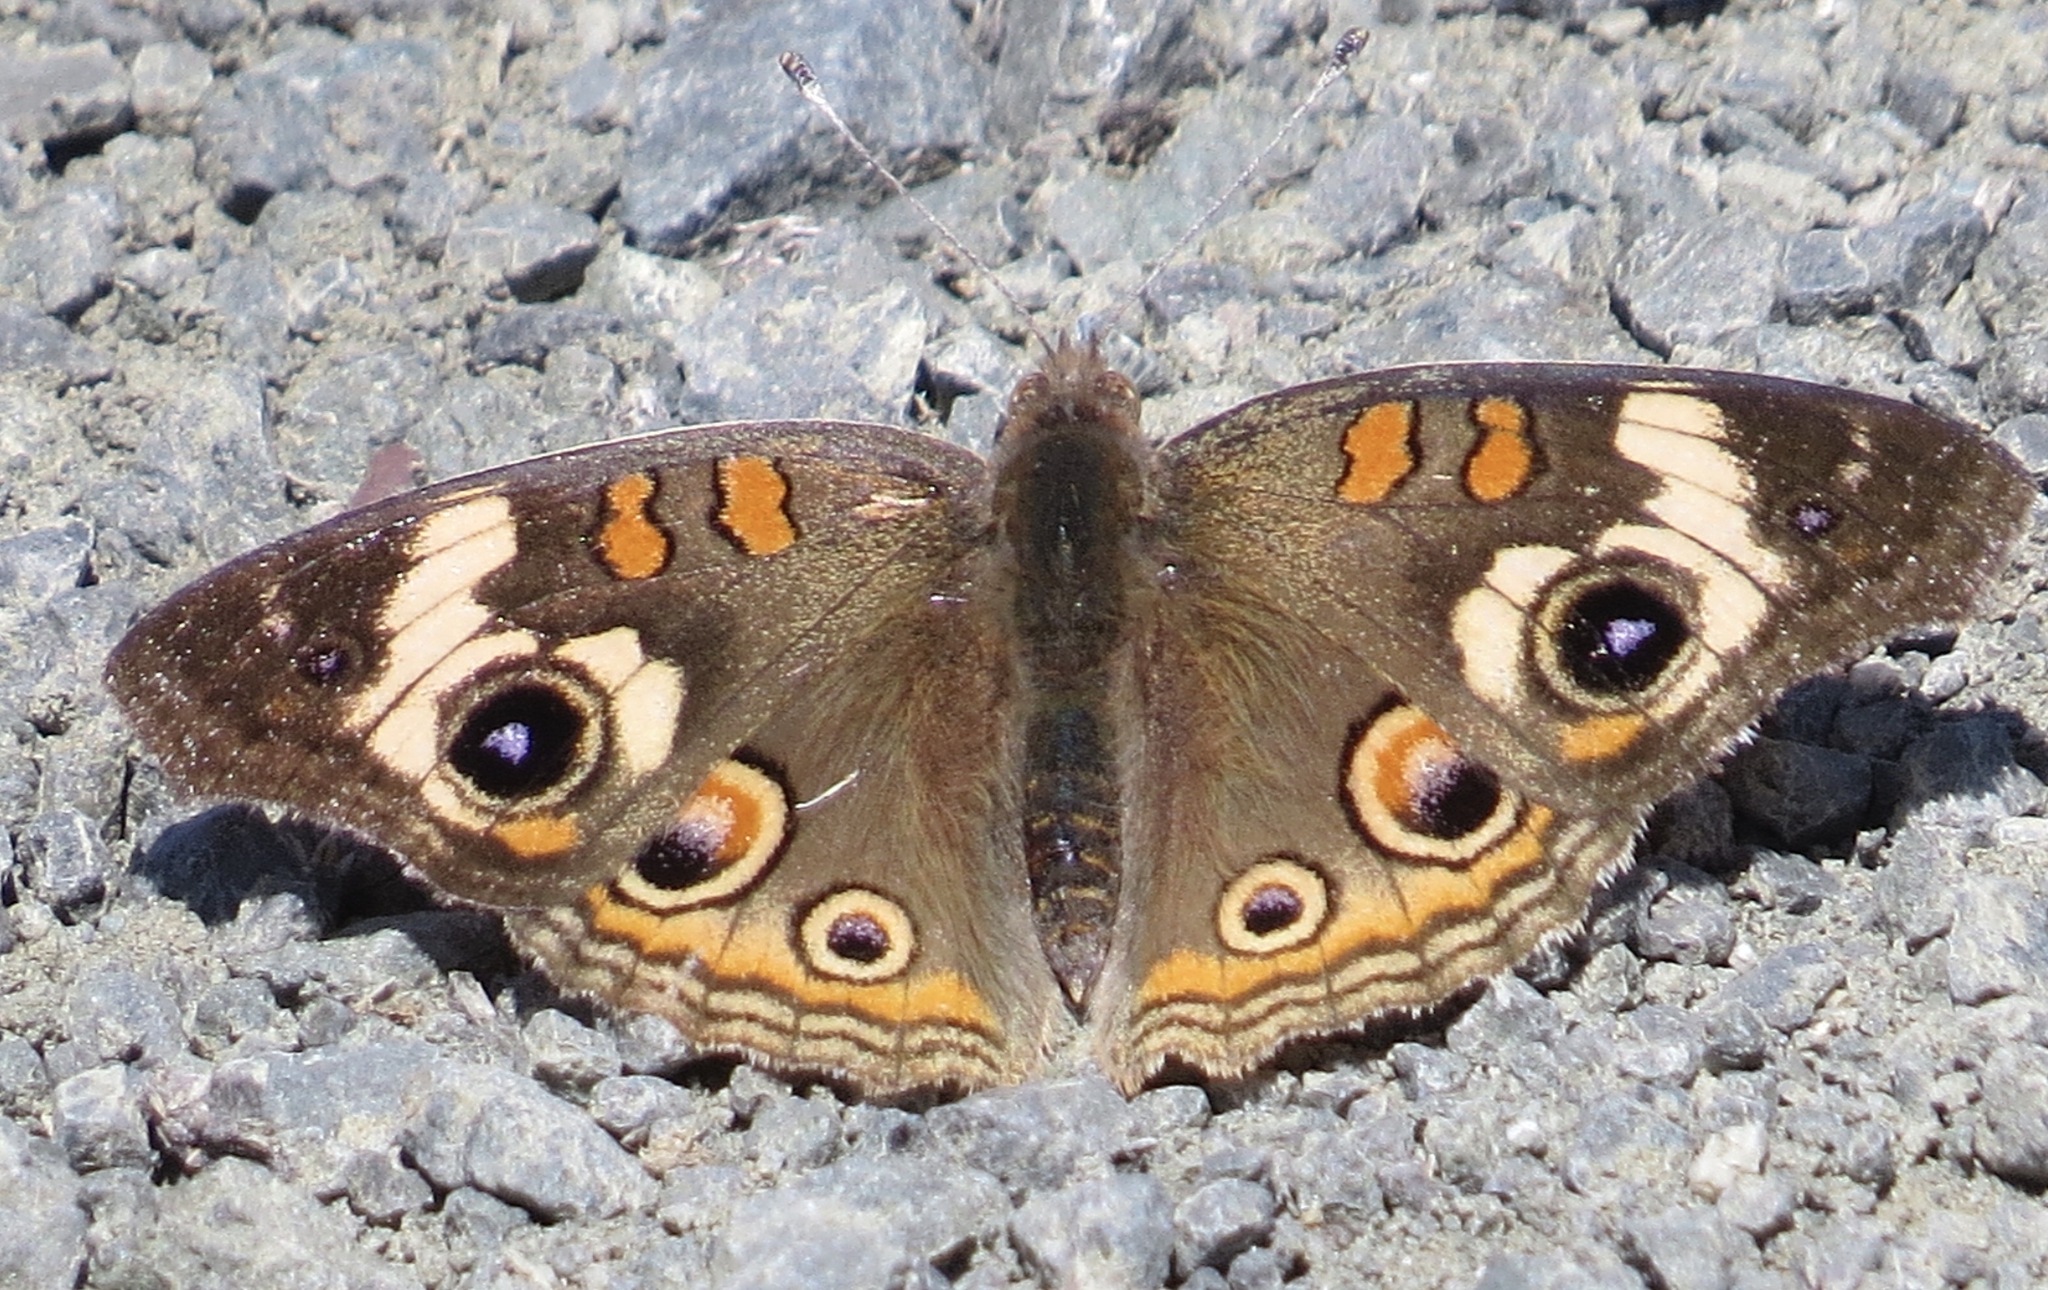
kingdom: Animalia
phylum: Arthropoda
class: Insecta
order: Lepidoptera
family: Nymphalidae
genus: Junonia
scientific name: Junonia grisea
